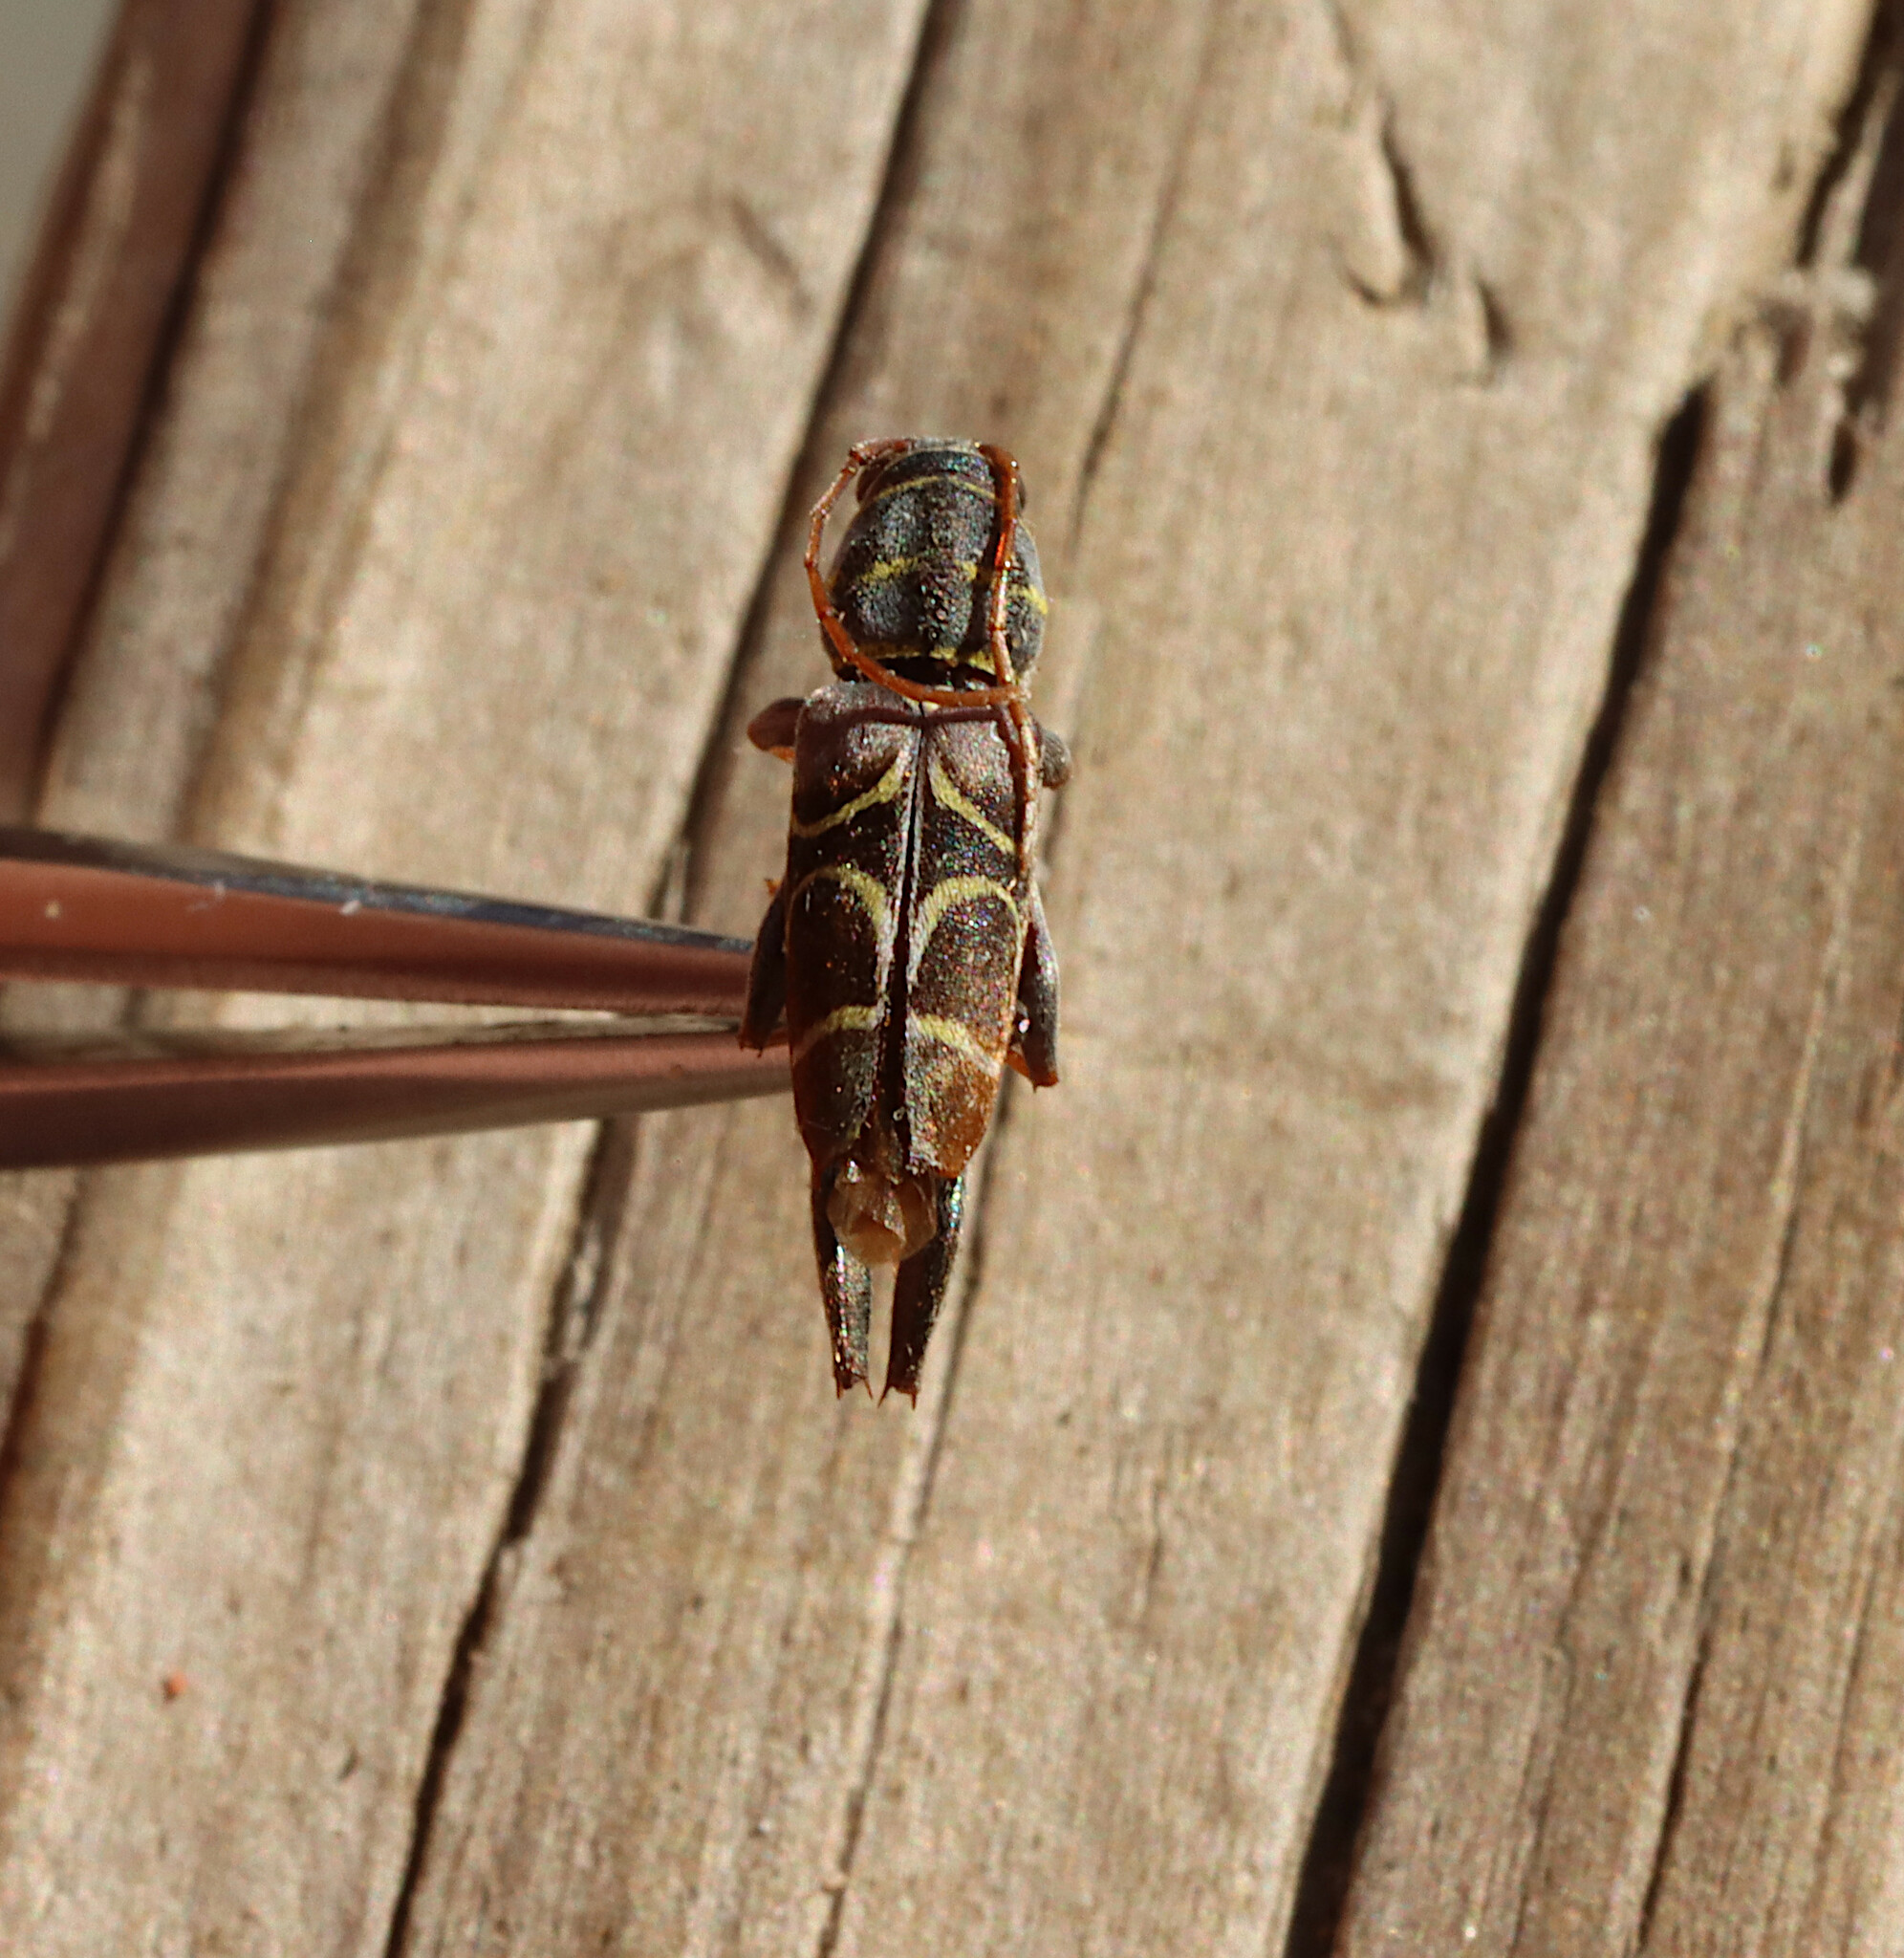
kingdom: Animalia
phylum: Arthropoda
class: Insecta
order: Coleoptera
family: Cerambycidae
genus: Neoclytus
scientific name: Neoclytus scutellaris
